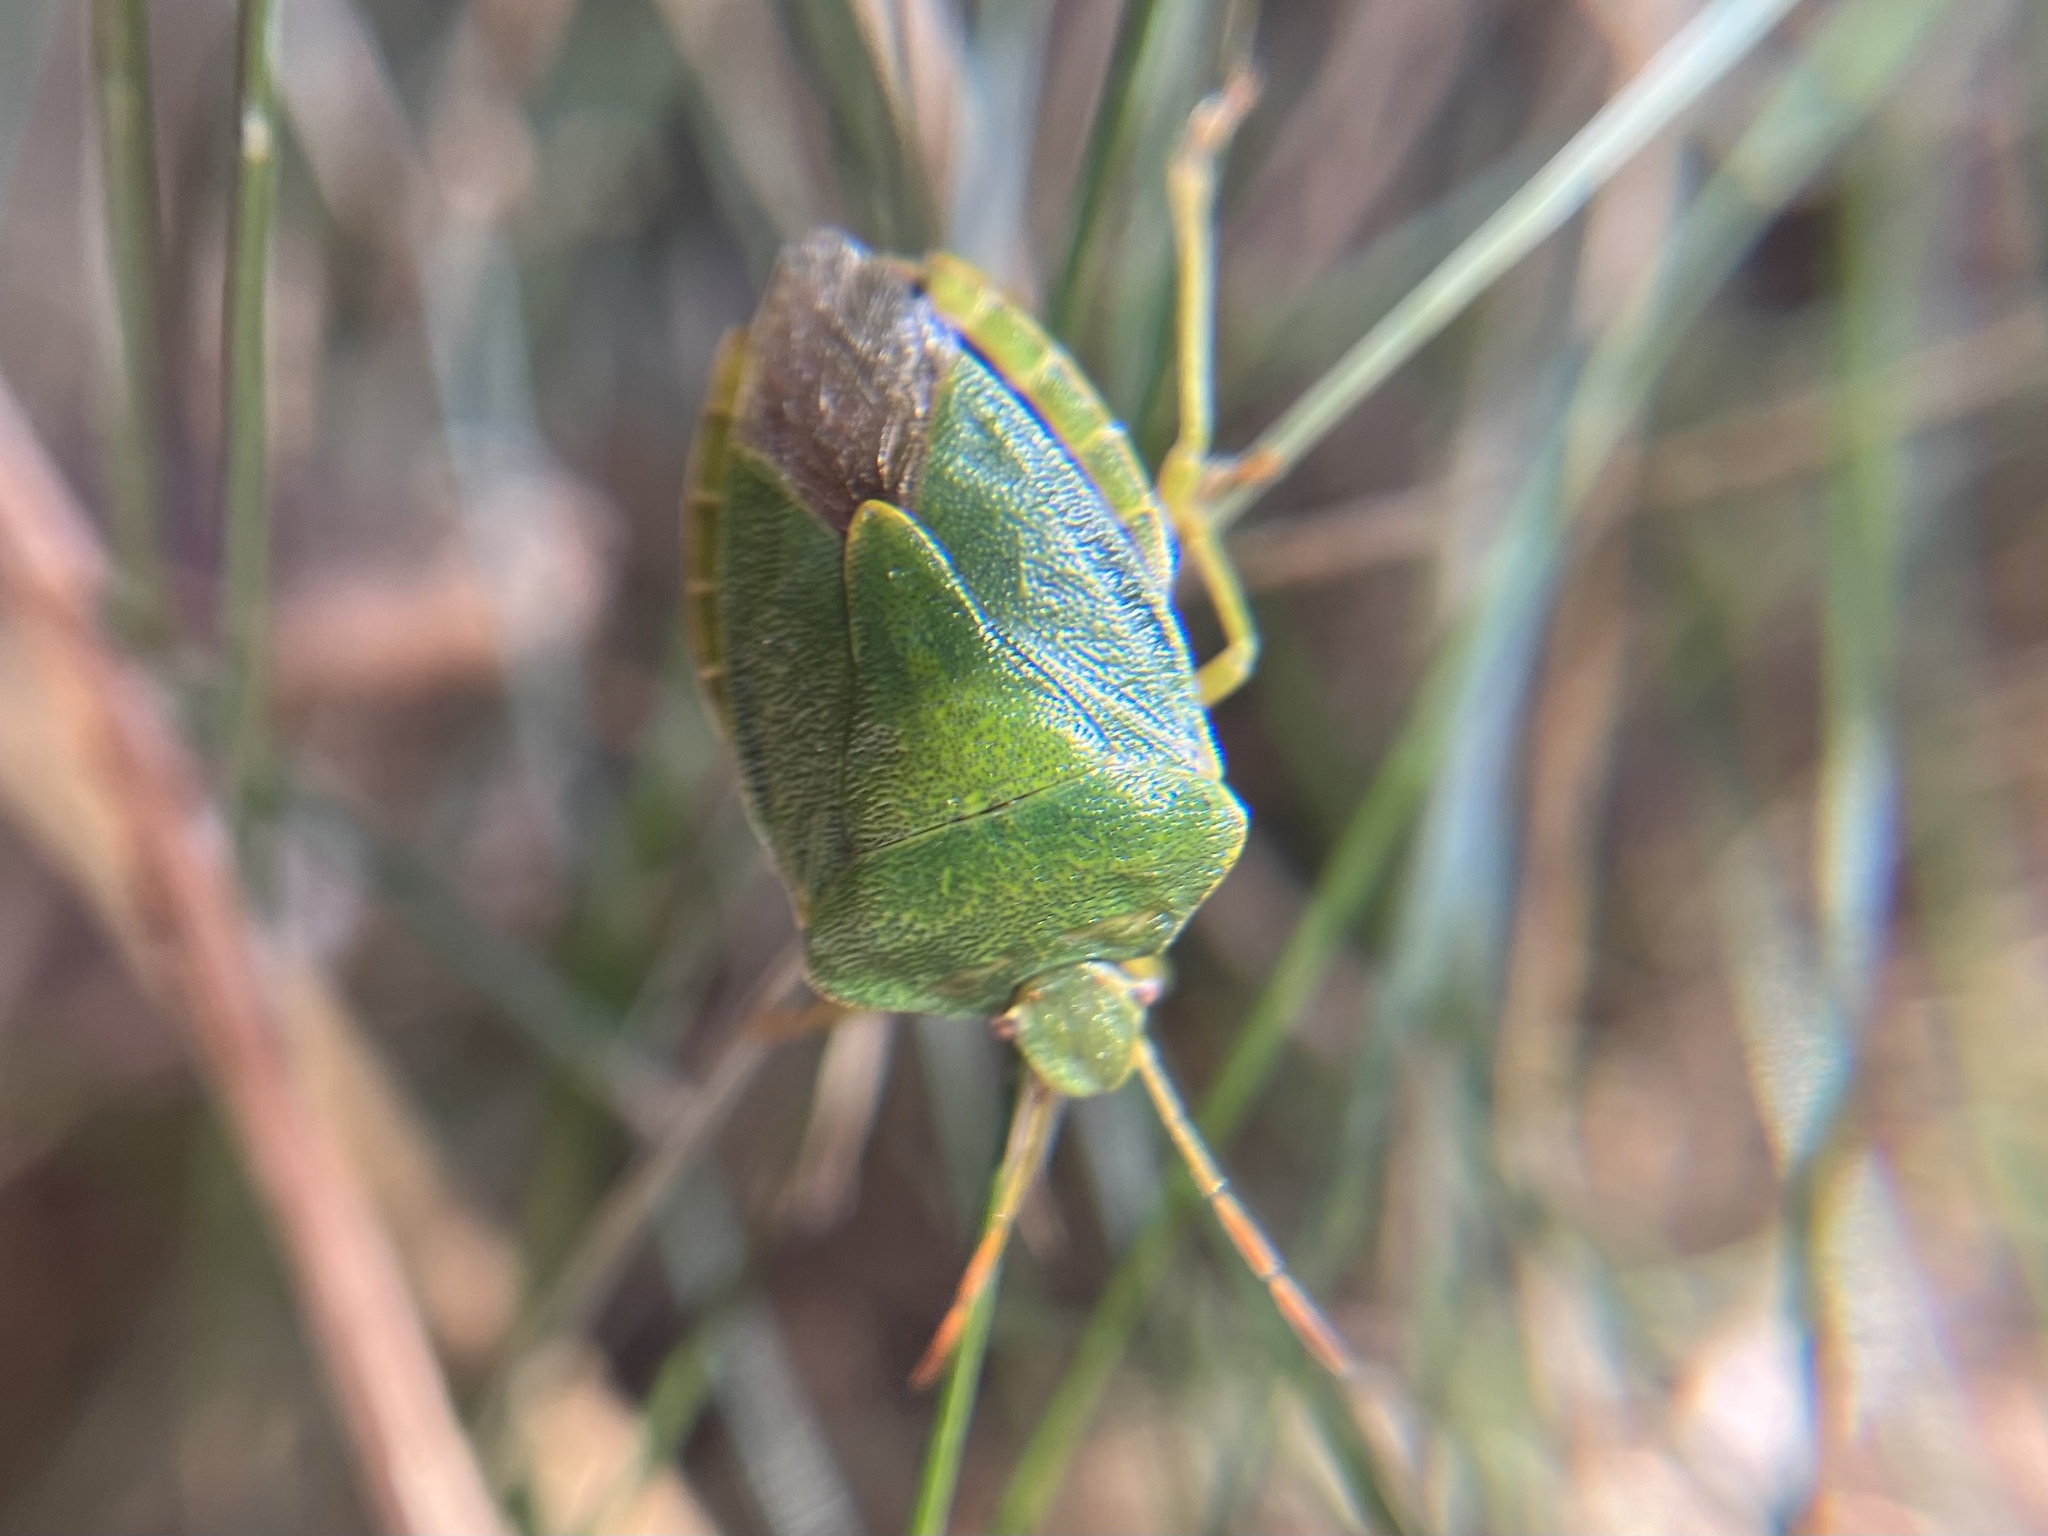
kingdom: Animalia
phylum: Arthropoda
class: Insecta
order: Hemiptera
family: Pentatomidae
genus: Palomena
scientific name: Palomena prasina
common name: Green shieldbug
